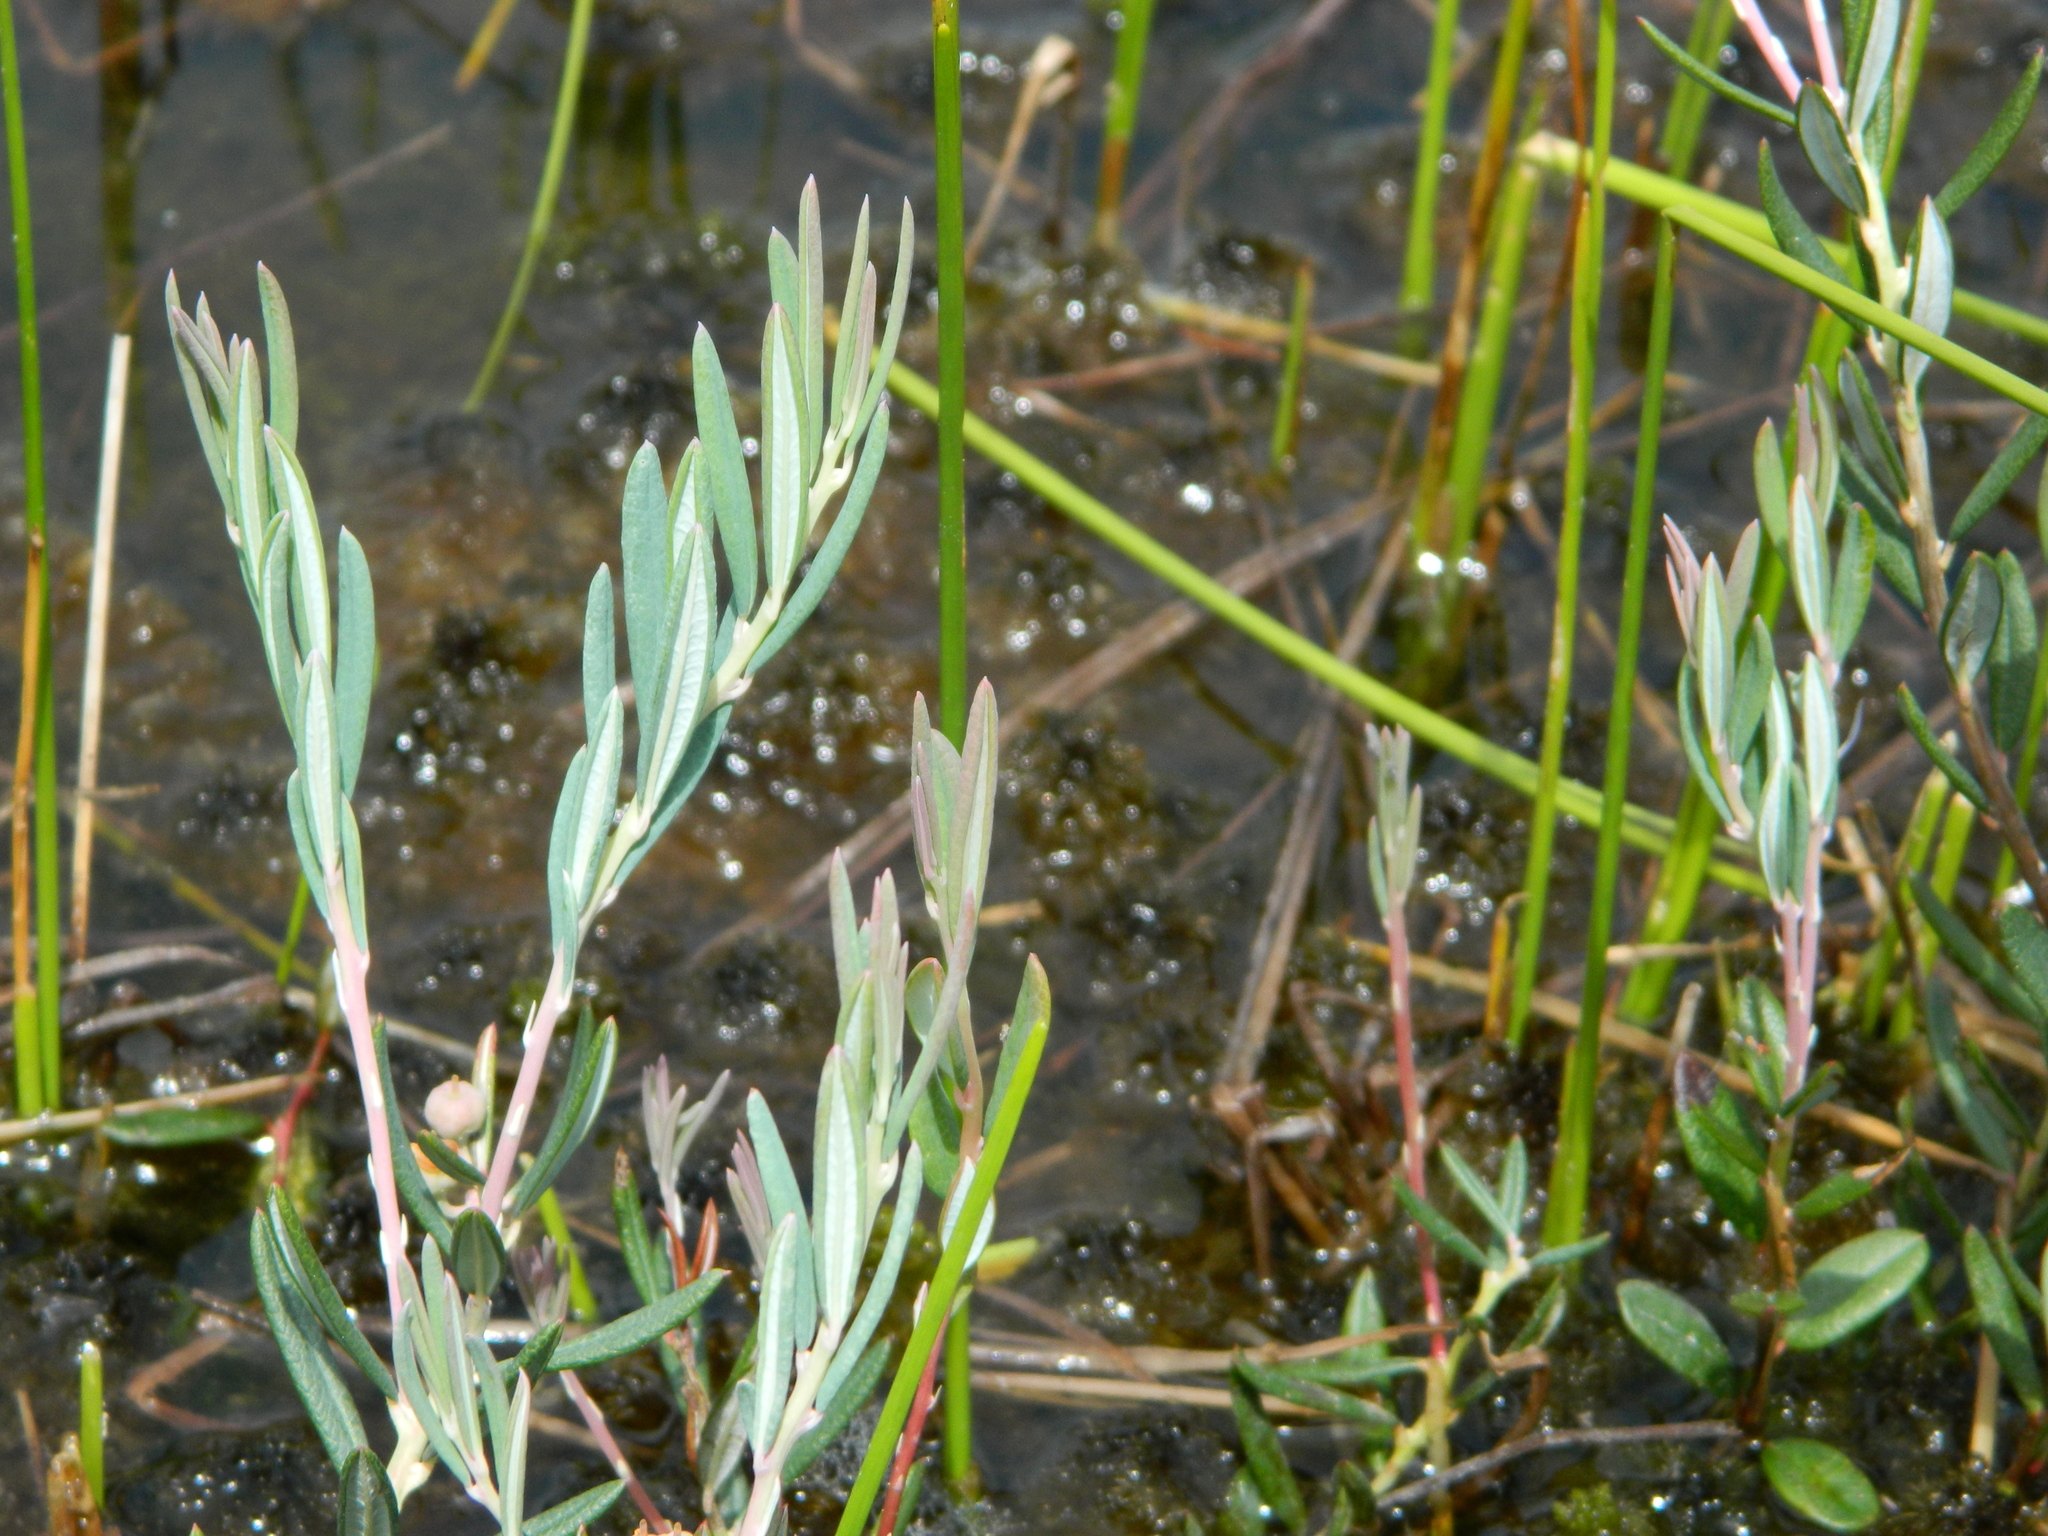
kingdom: Plantae
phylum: Tracheophyta
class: Magnoliopsida
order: Ericales
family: Ericaceae
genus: Andromeda
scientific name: Andromeda polifolia
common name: Bog-rosemary
